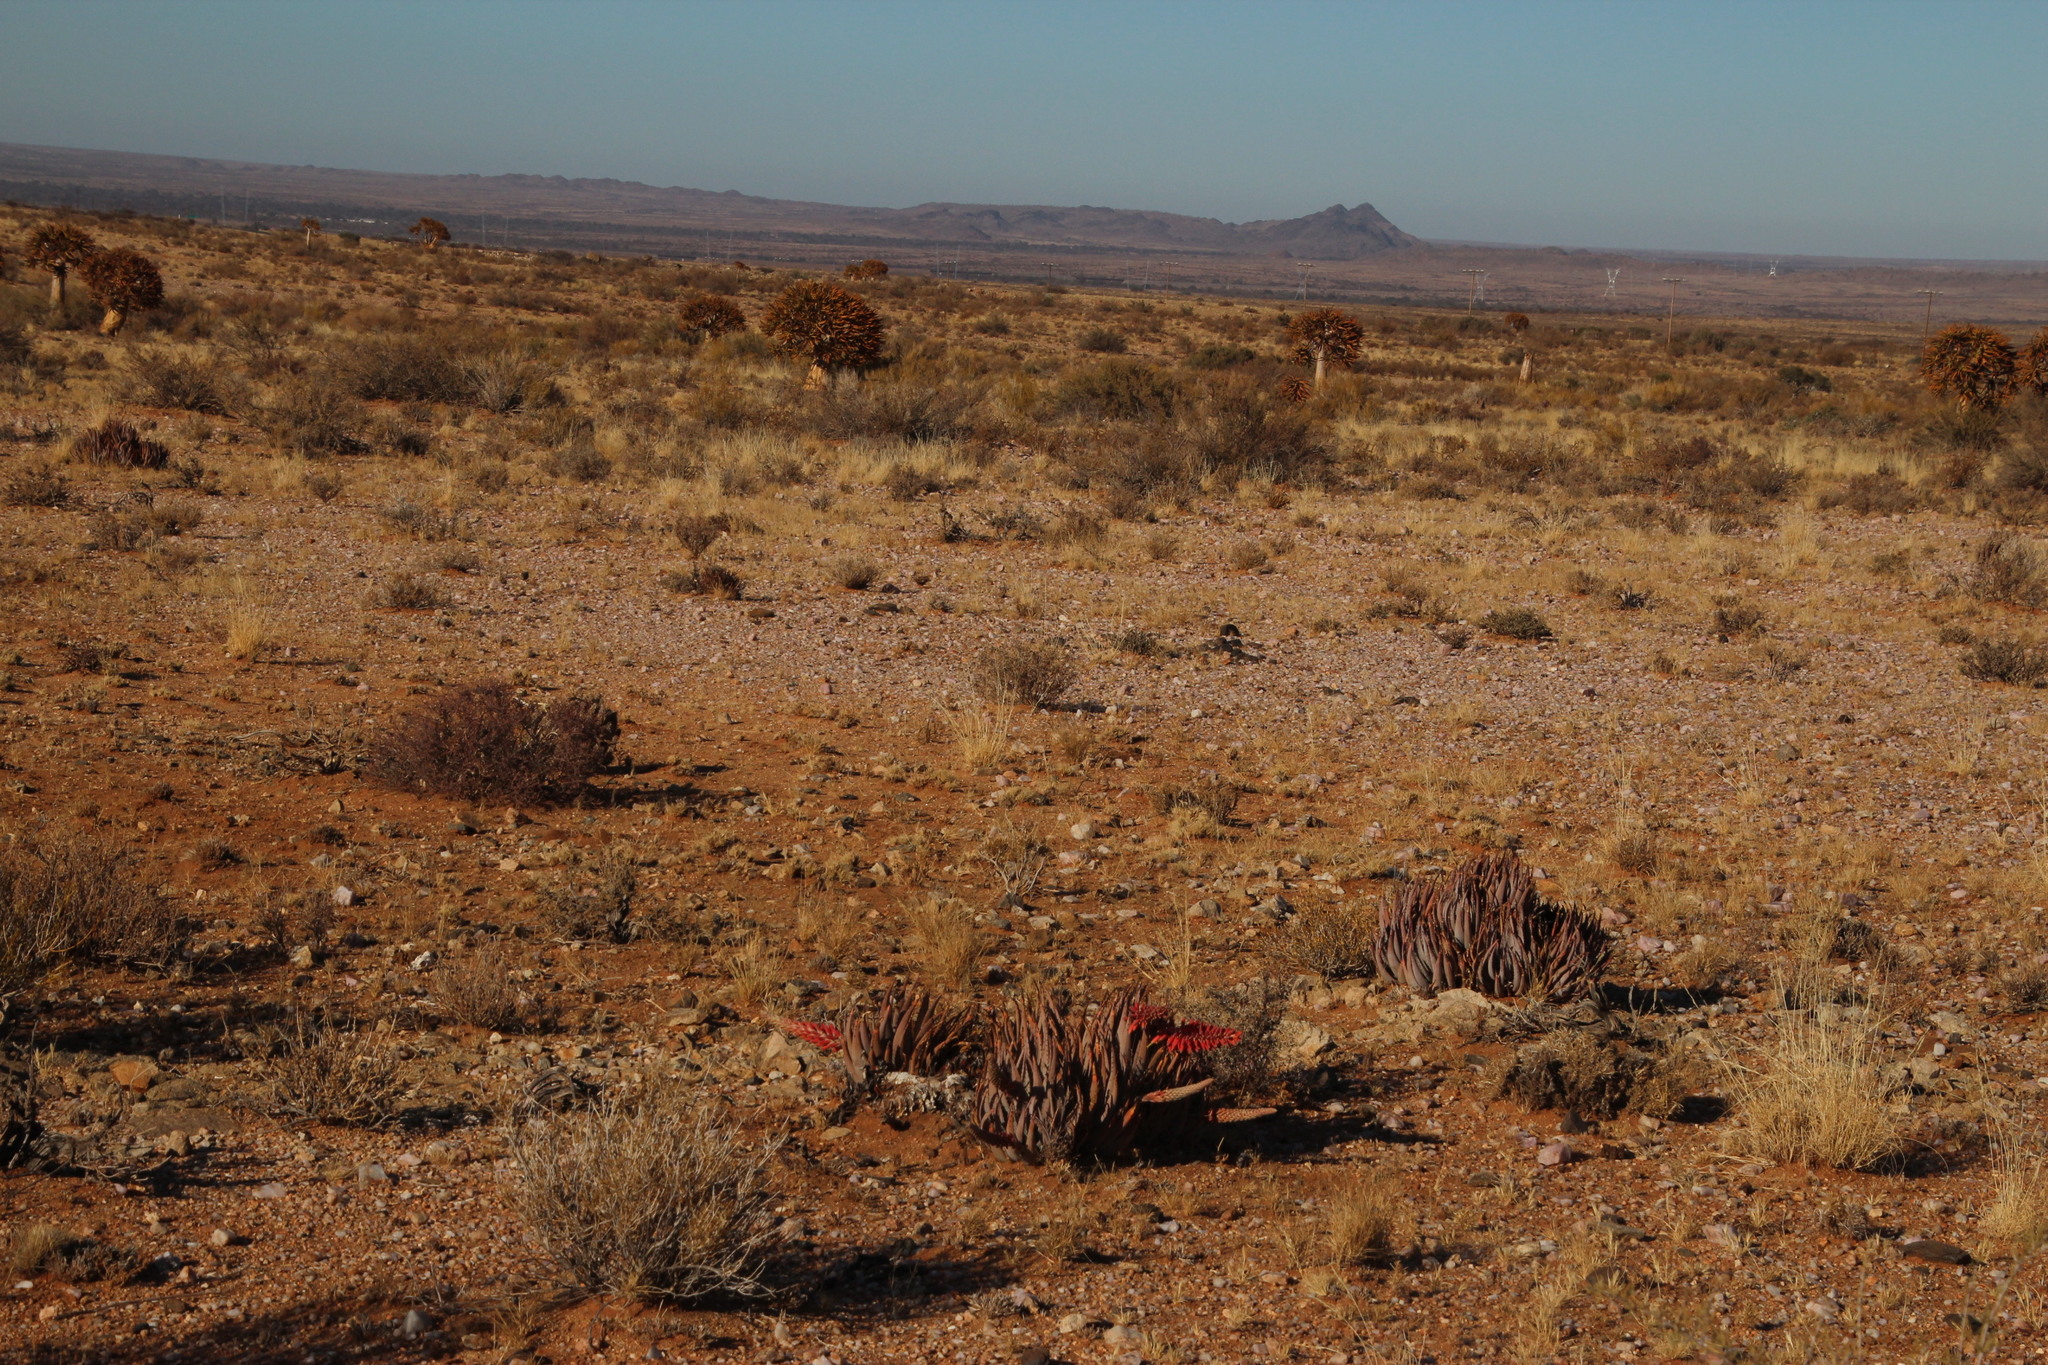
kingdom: Plantae
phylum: Tracheophyta
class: Liliopsida
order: Asparagales
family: Asphodelaceae
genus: Aloe
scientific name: Aloe claviflora
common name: Cannon aloe
